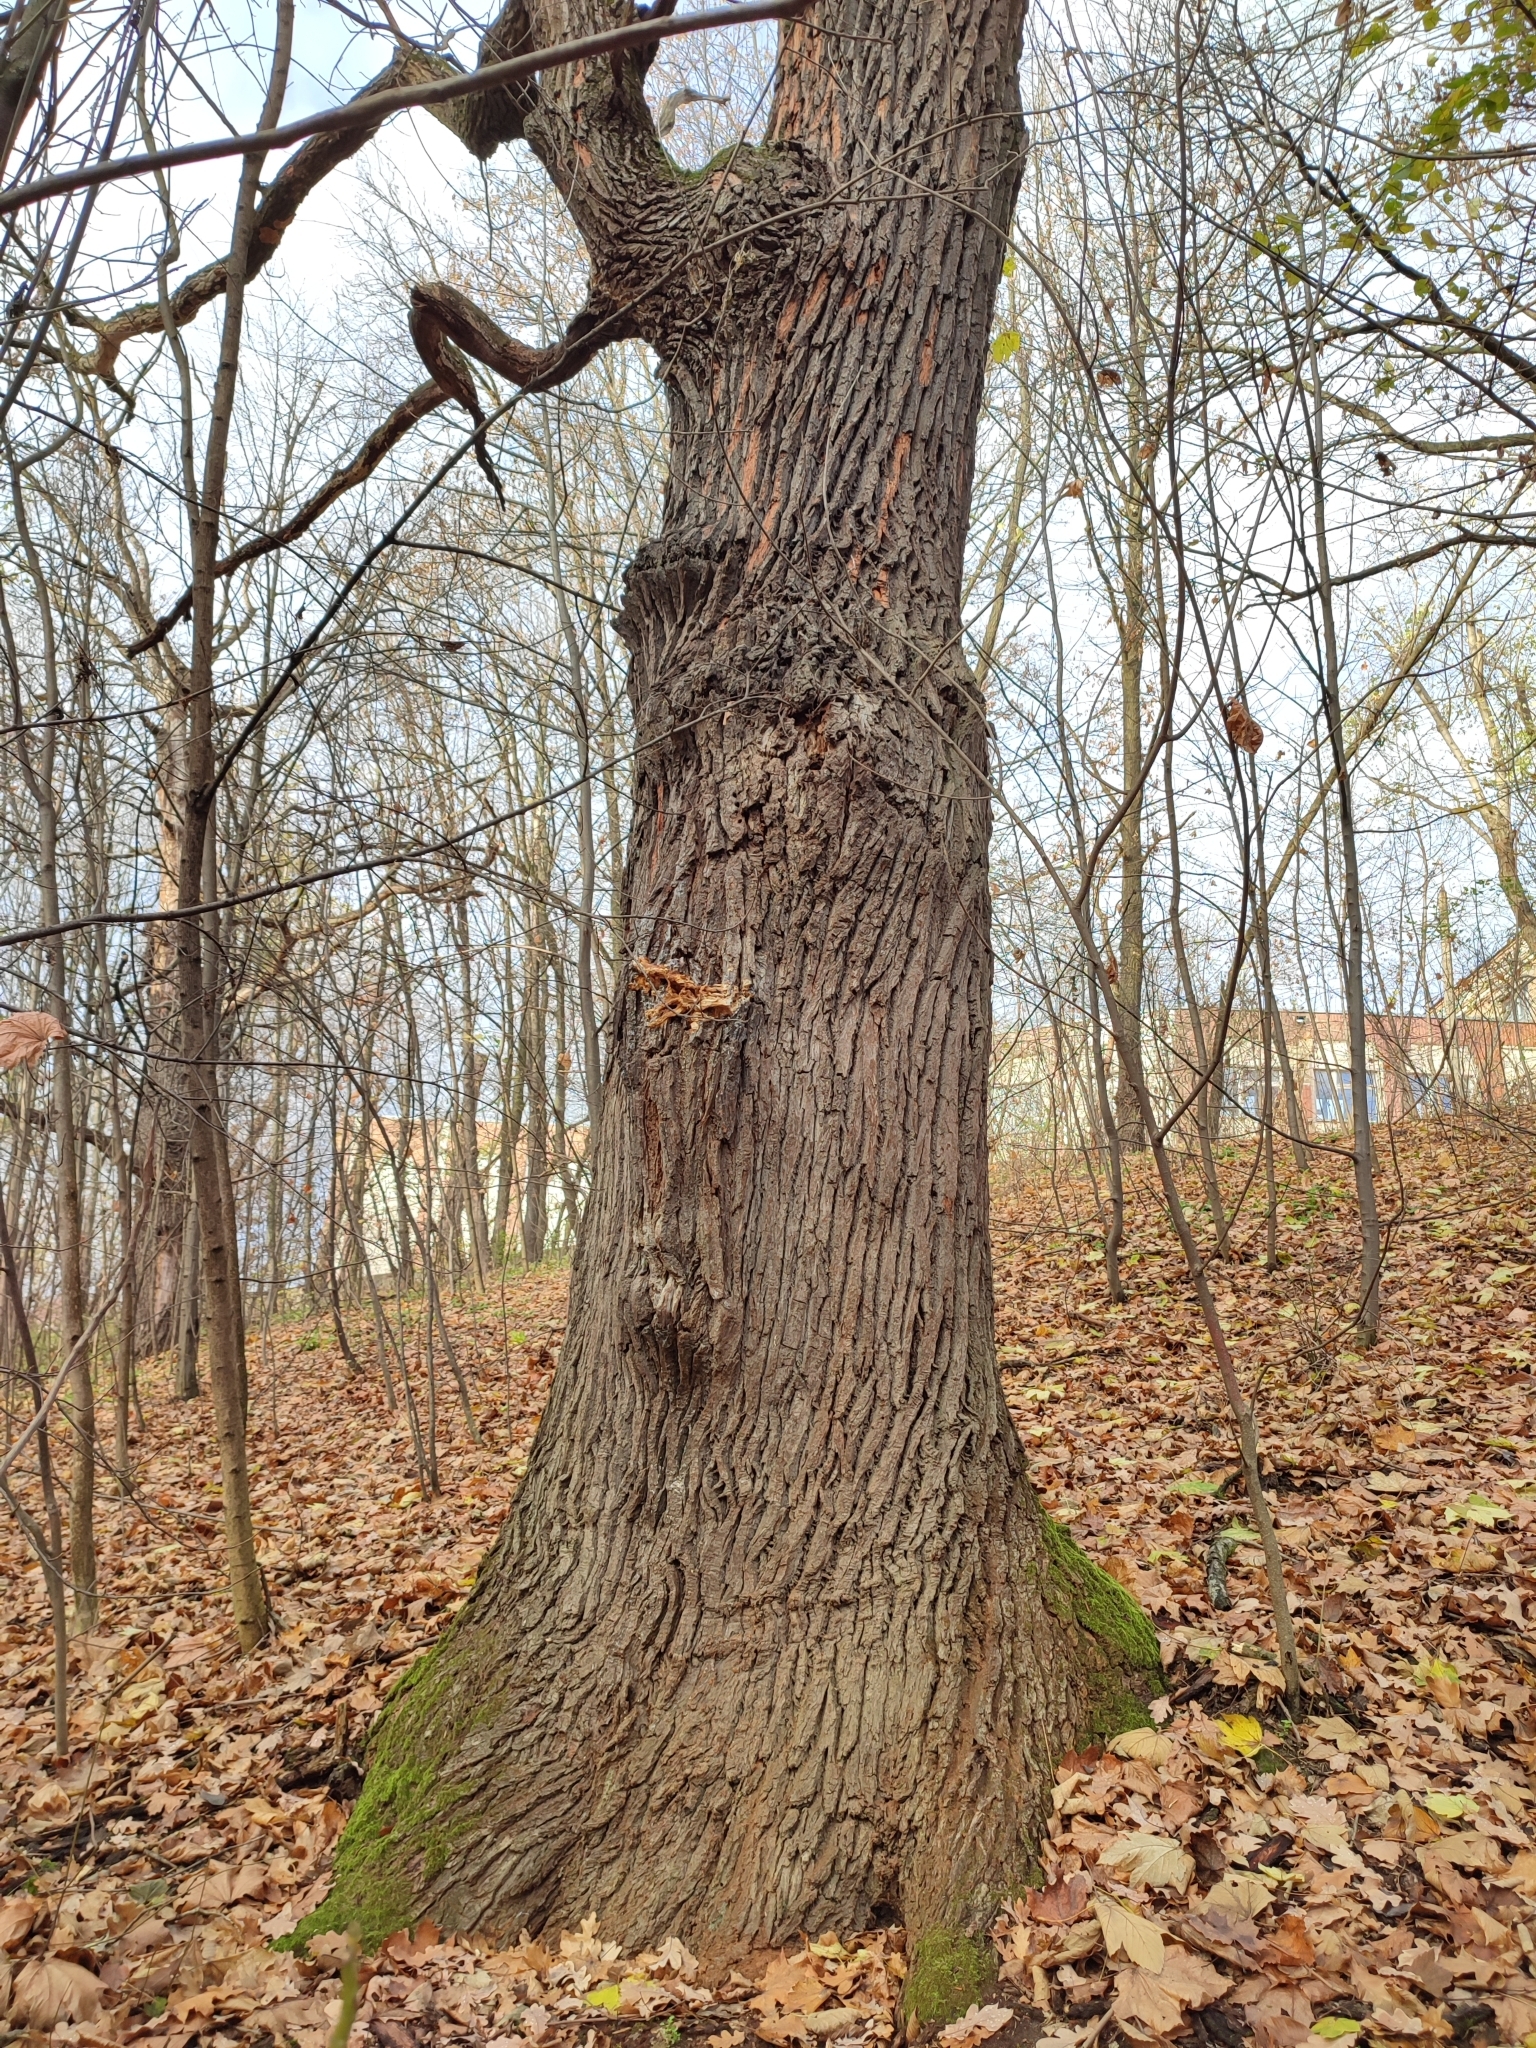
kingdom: Plantae
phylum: Tracheophyta
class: Magnoliopsida
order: Fagales
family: Fagaceae
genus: Quercus
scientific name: Quercus robur
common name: Pedunculate oak
